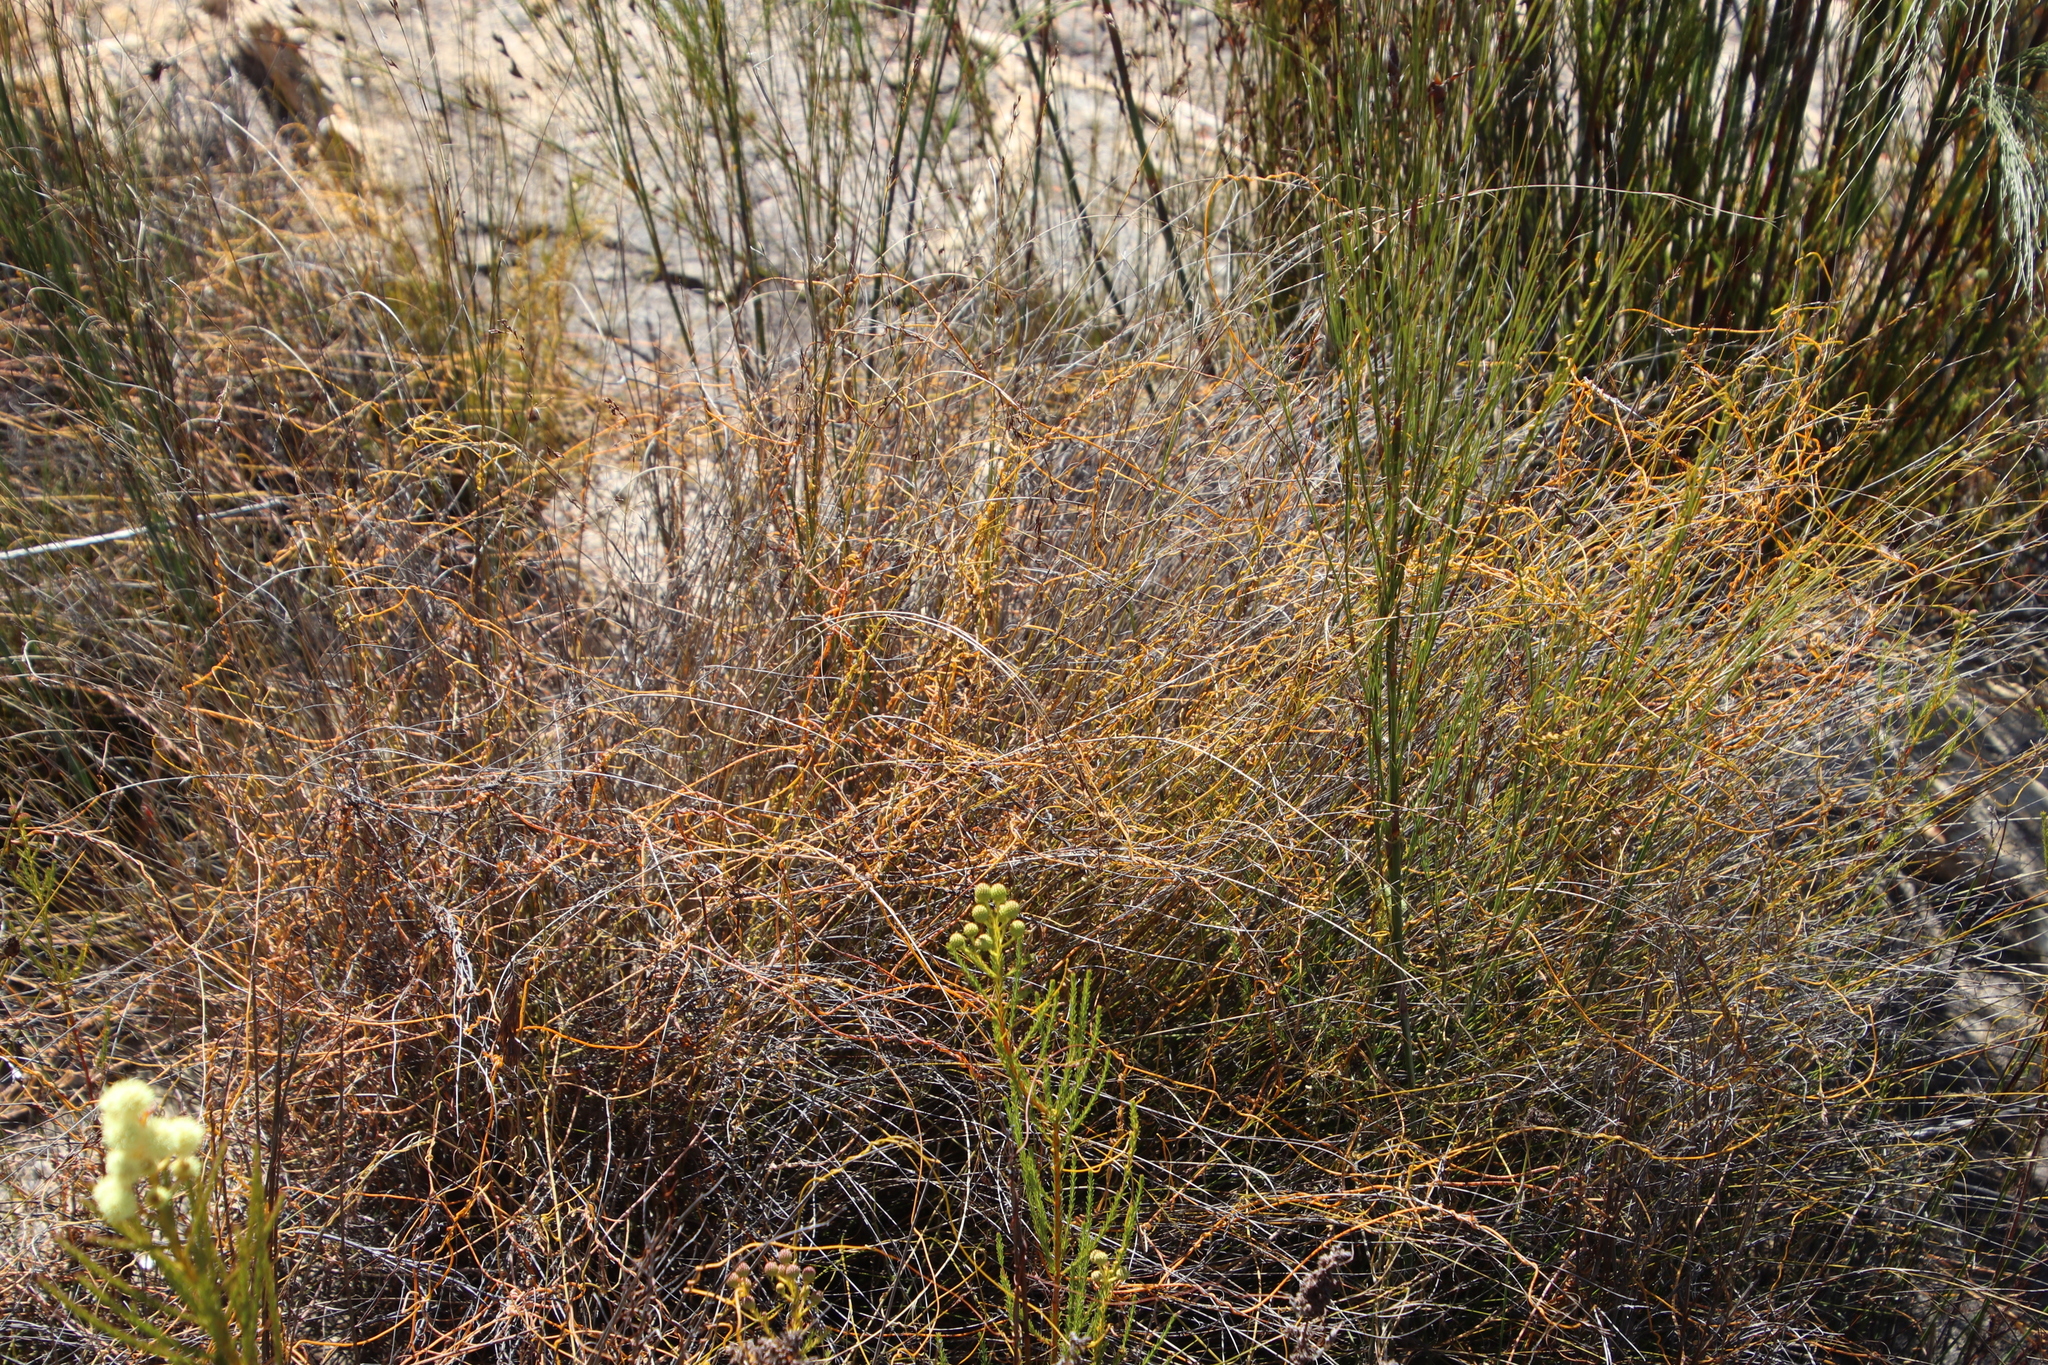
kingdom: Plantae
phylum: Tracheophyta
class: Magnoliopsida
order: Laurales
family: Lauraceae
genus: Cassytha
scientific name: Cassytha ciliolata
